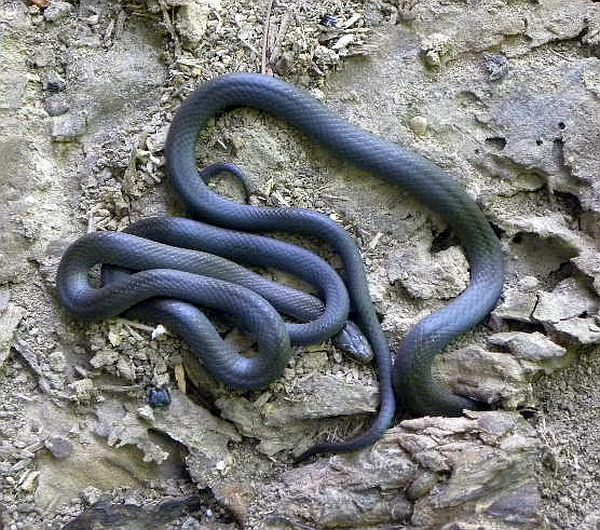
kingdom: Animalia
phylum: Chordata
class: Squamata
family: Colubridae
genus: Diadophis
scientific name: Diadophis punctatus
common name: Ringneck snake
